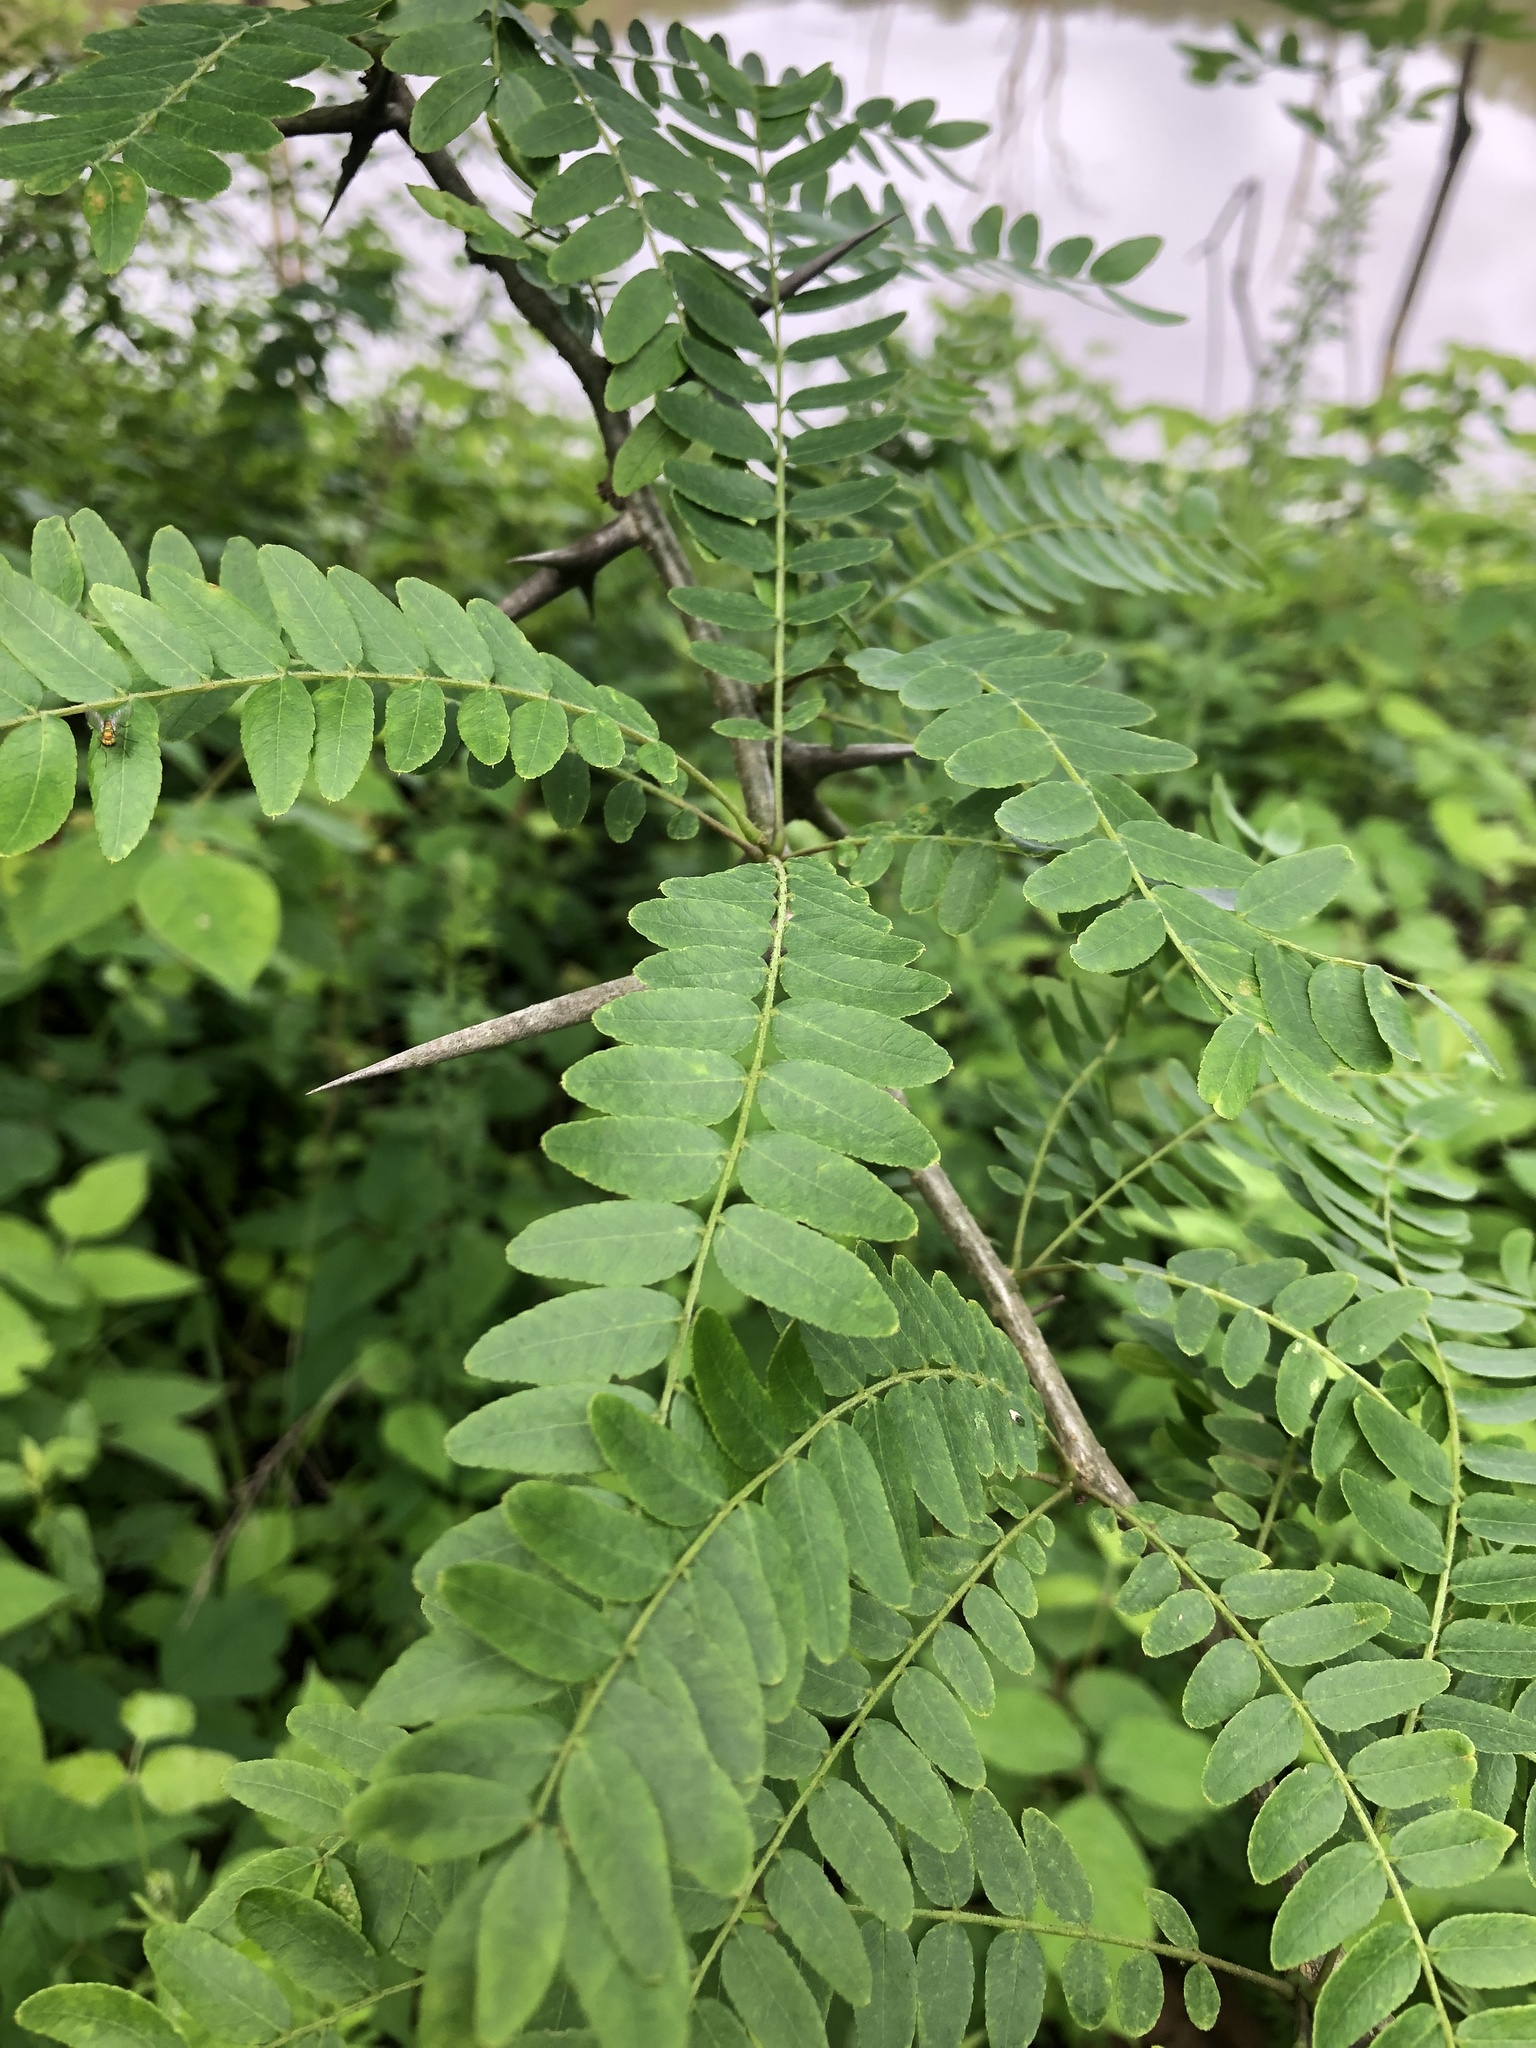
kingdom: Plantae
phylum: Tracheophyta
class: Magnoliopsida
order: Fabales
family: Fabaceae
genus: Gleditsia
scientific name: Gleditsia triacanthos
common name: Common honeylocust
